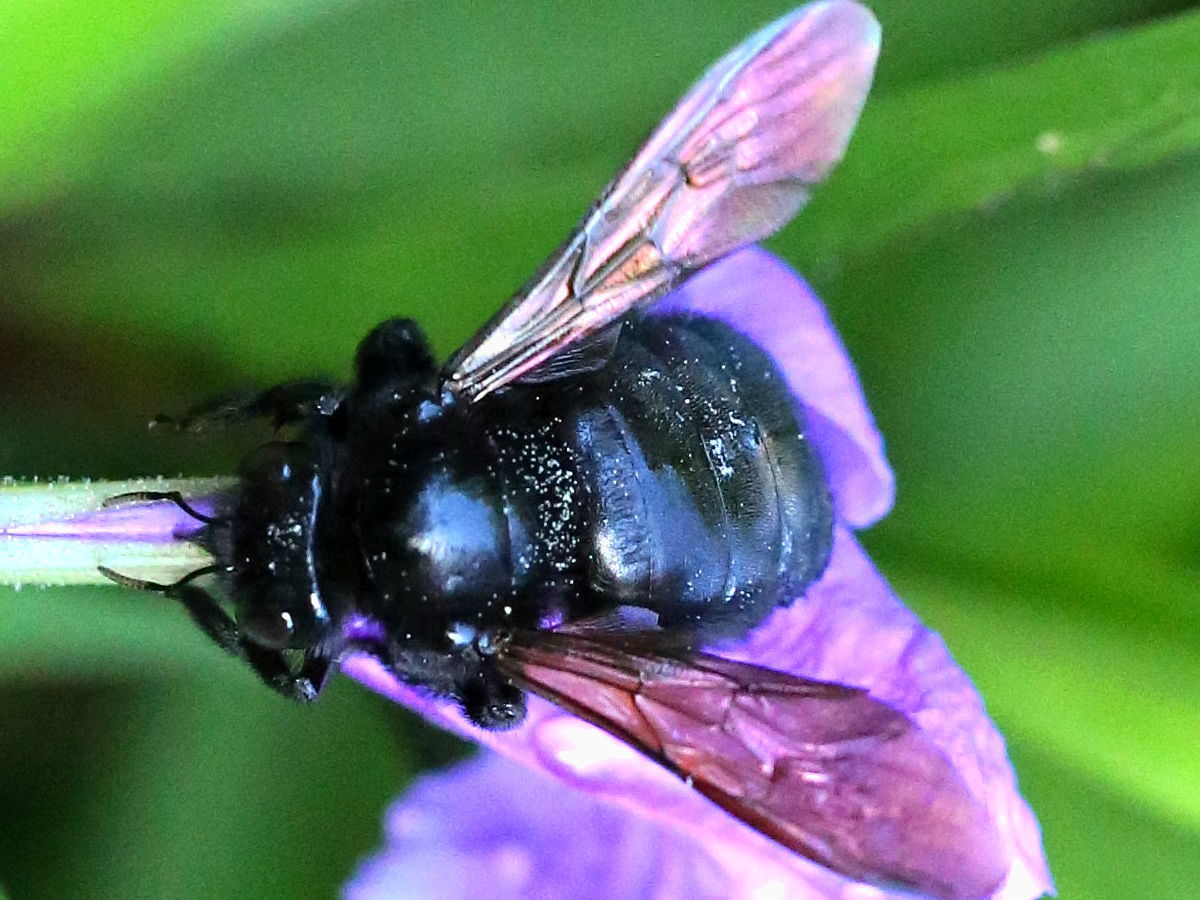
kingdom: Animalia
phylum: Arthropoda
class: Insecta
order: Hymenoptera
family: Apidae
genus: Xylocopa
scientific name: Xylocopa sonorina
